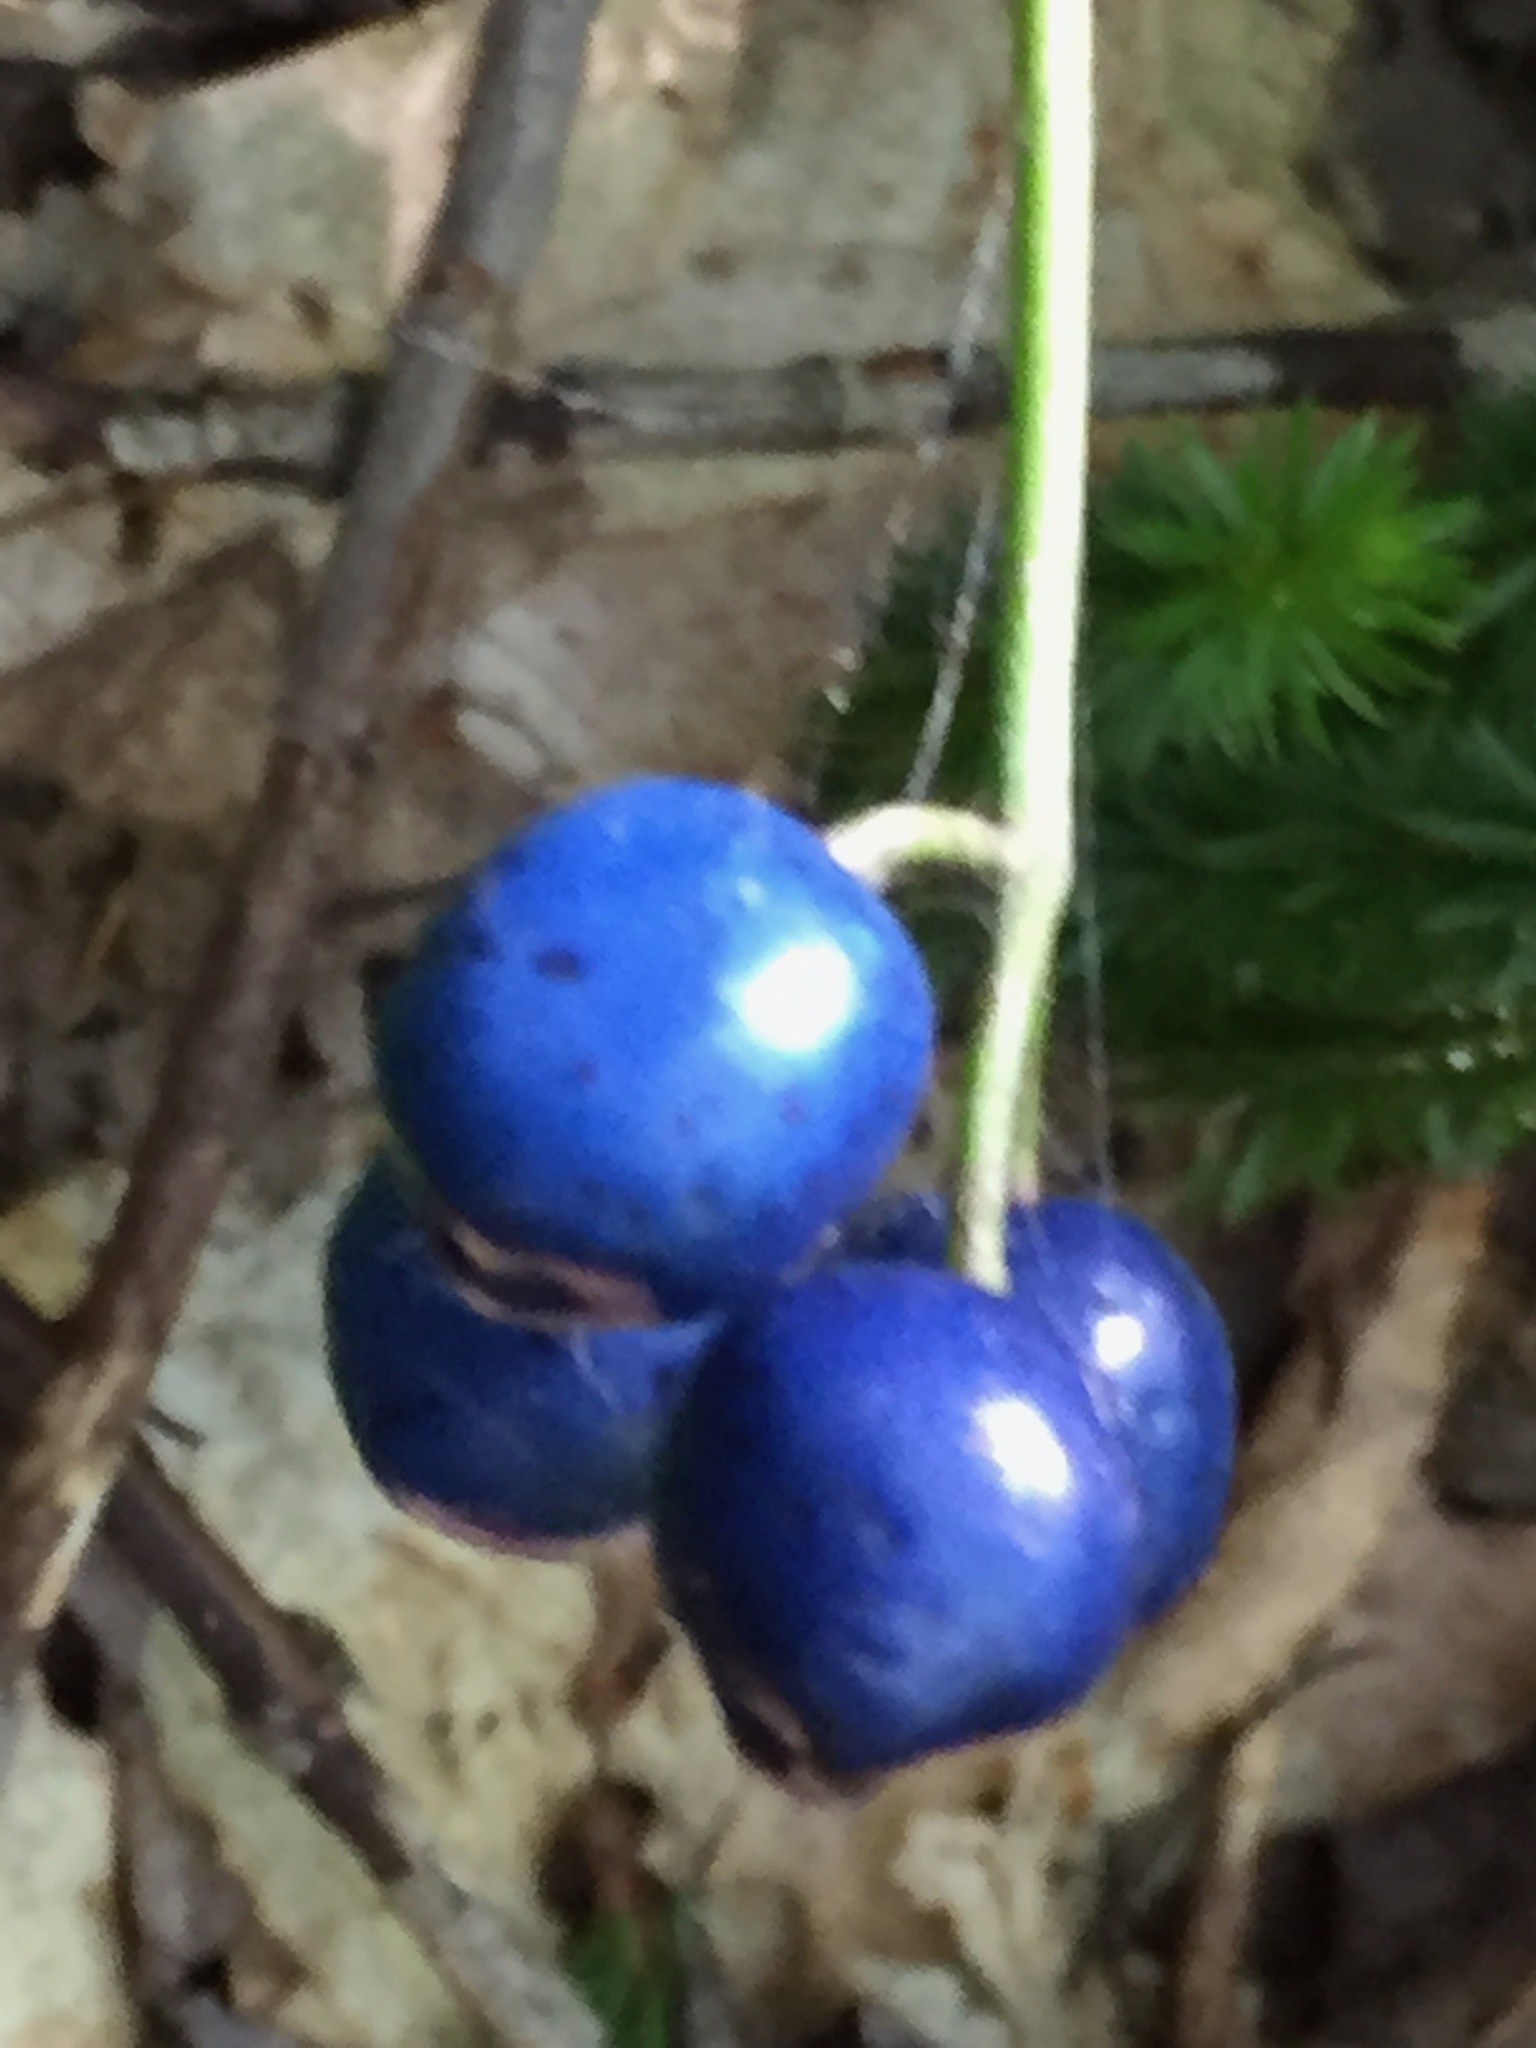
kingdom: Plantae
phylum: Tracheophyta
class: Liliopsida
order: Liliales
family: Liliaceae
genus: Clintonia
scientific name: Clintonia borealis
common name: Yellow clintonia
